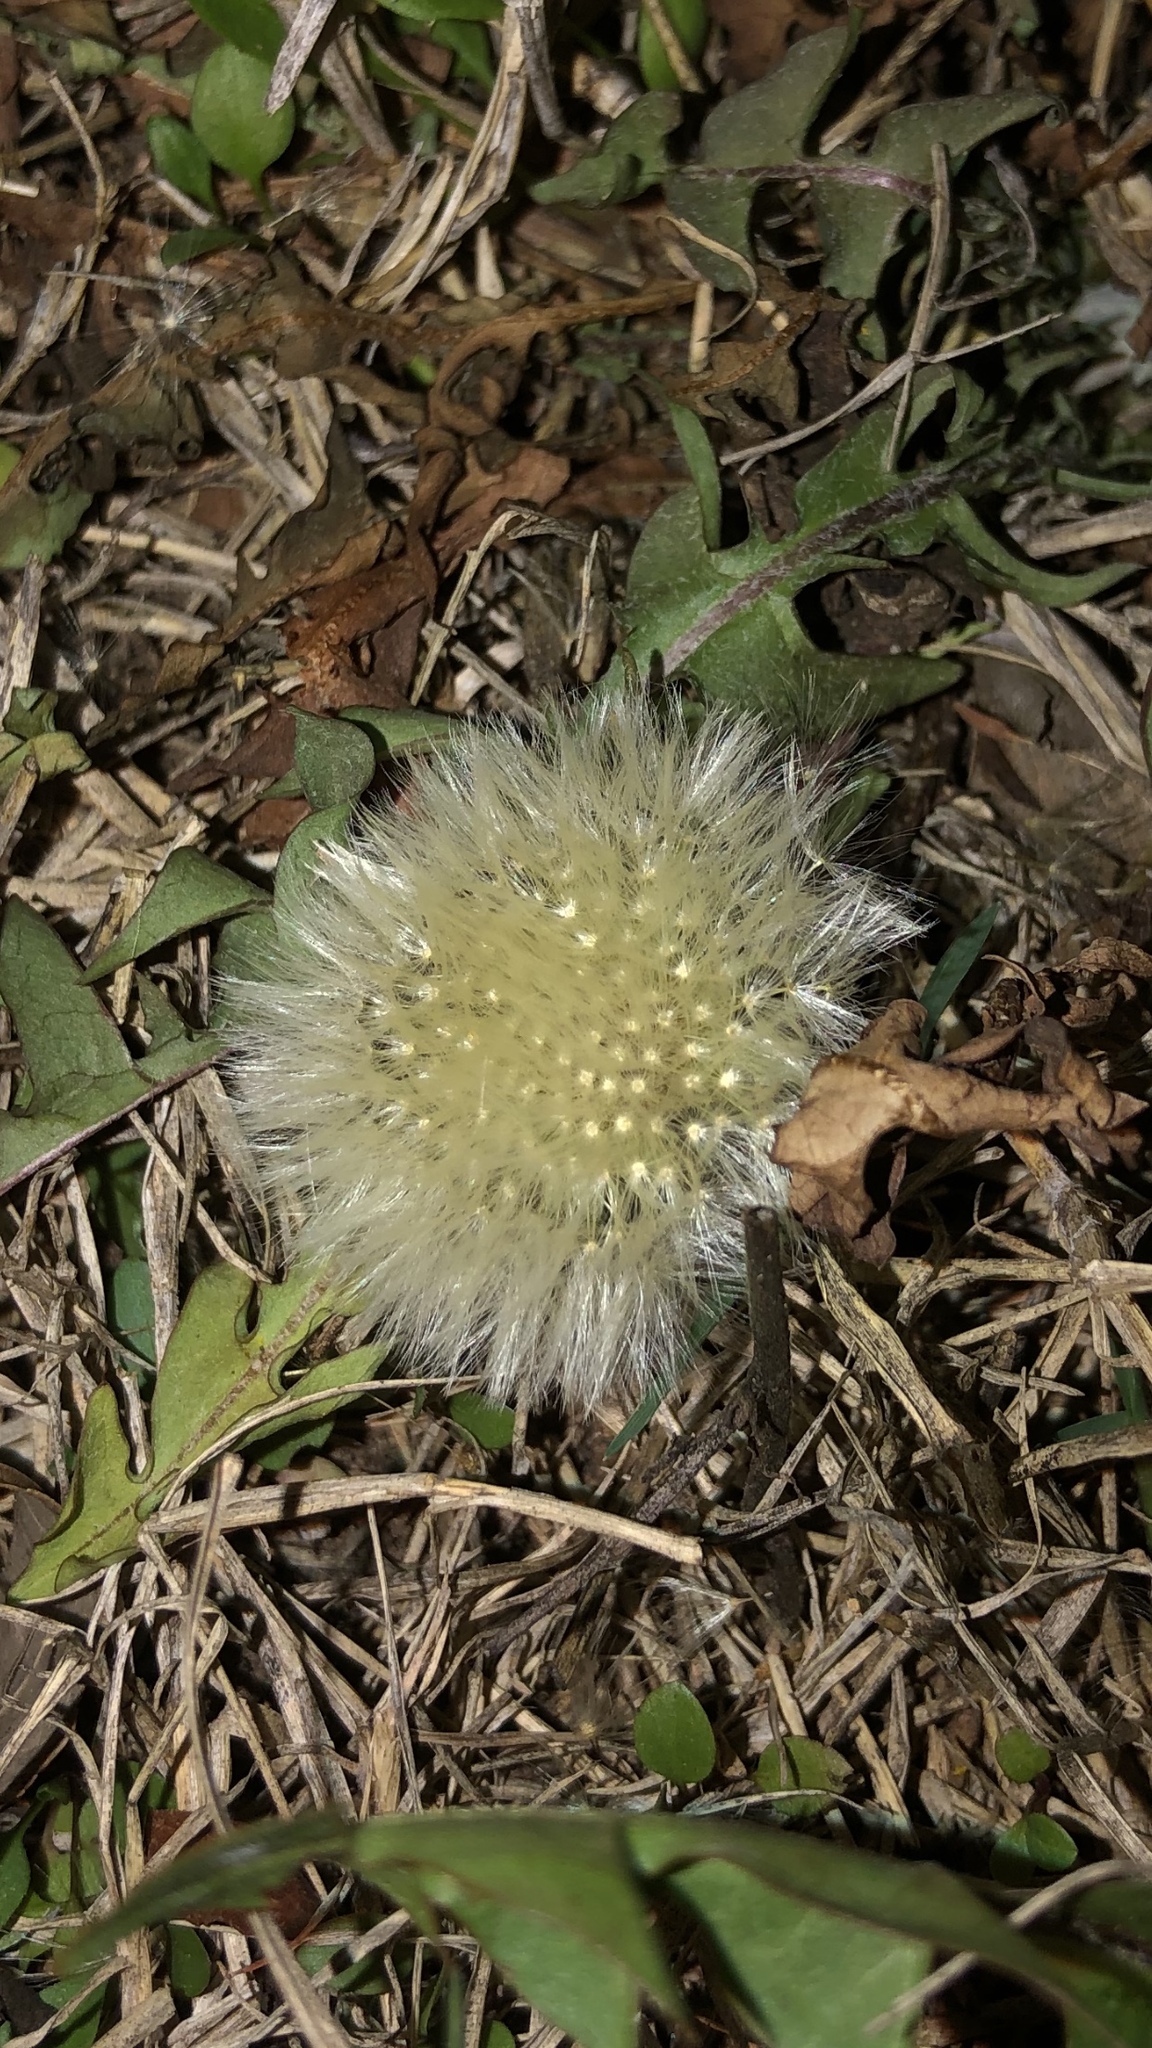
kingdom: Plantae
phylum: Tracheophyta
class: Magnoliopsida
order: Asterales
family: Asteraceae
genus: Taraxacum
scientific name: Taraxacum
